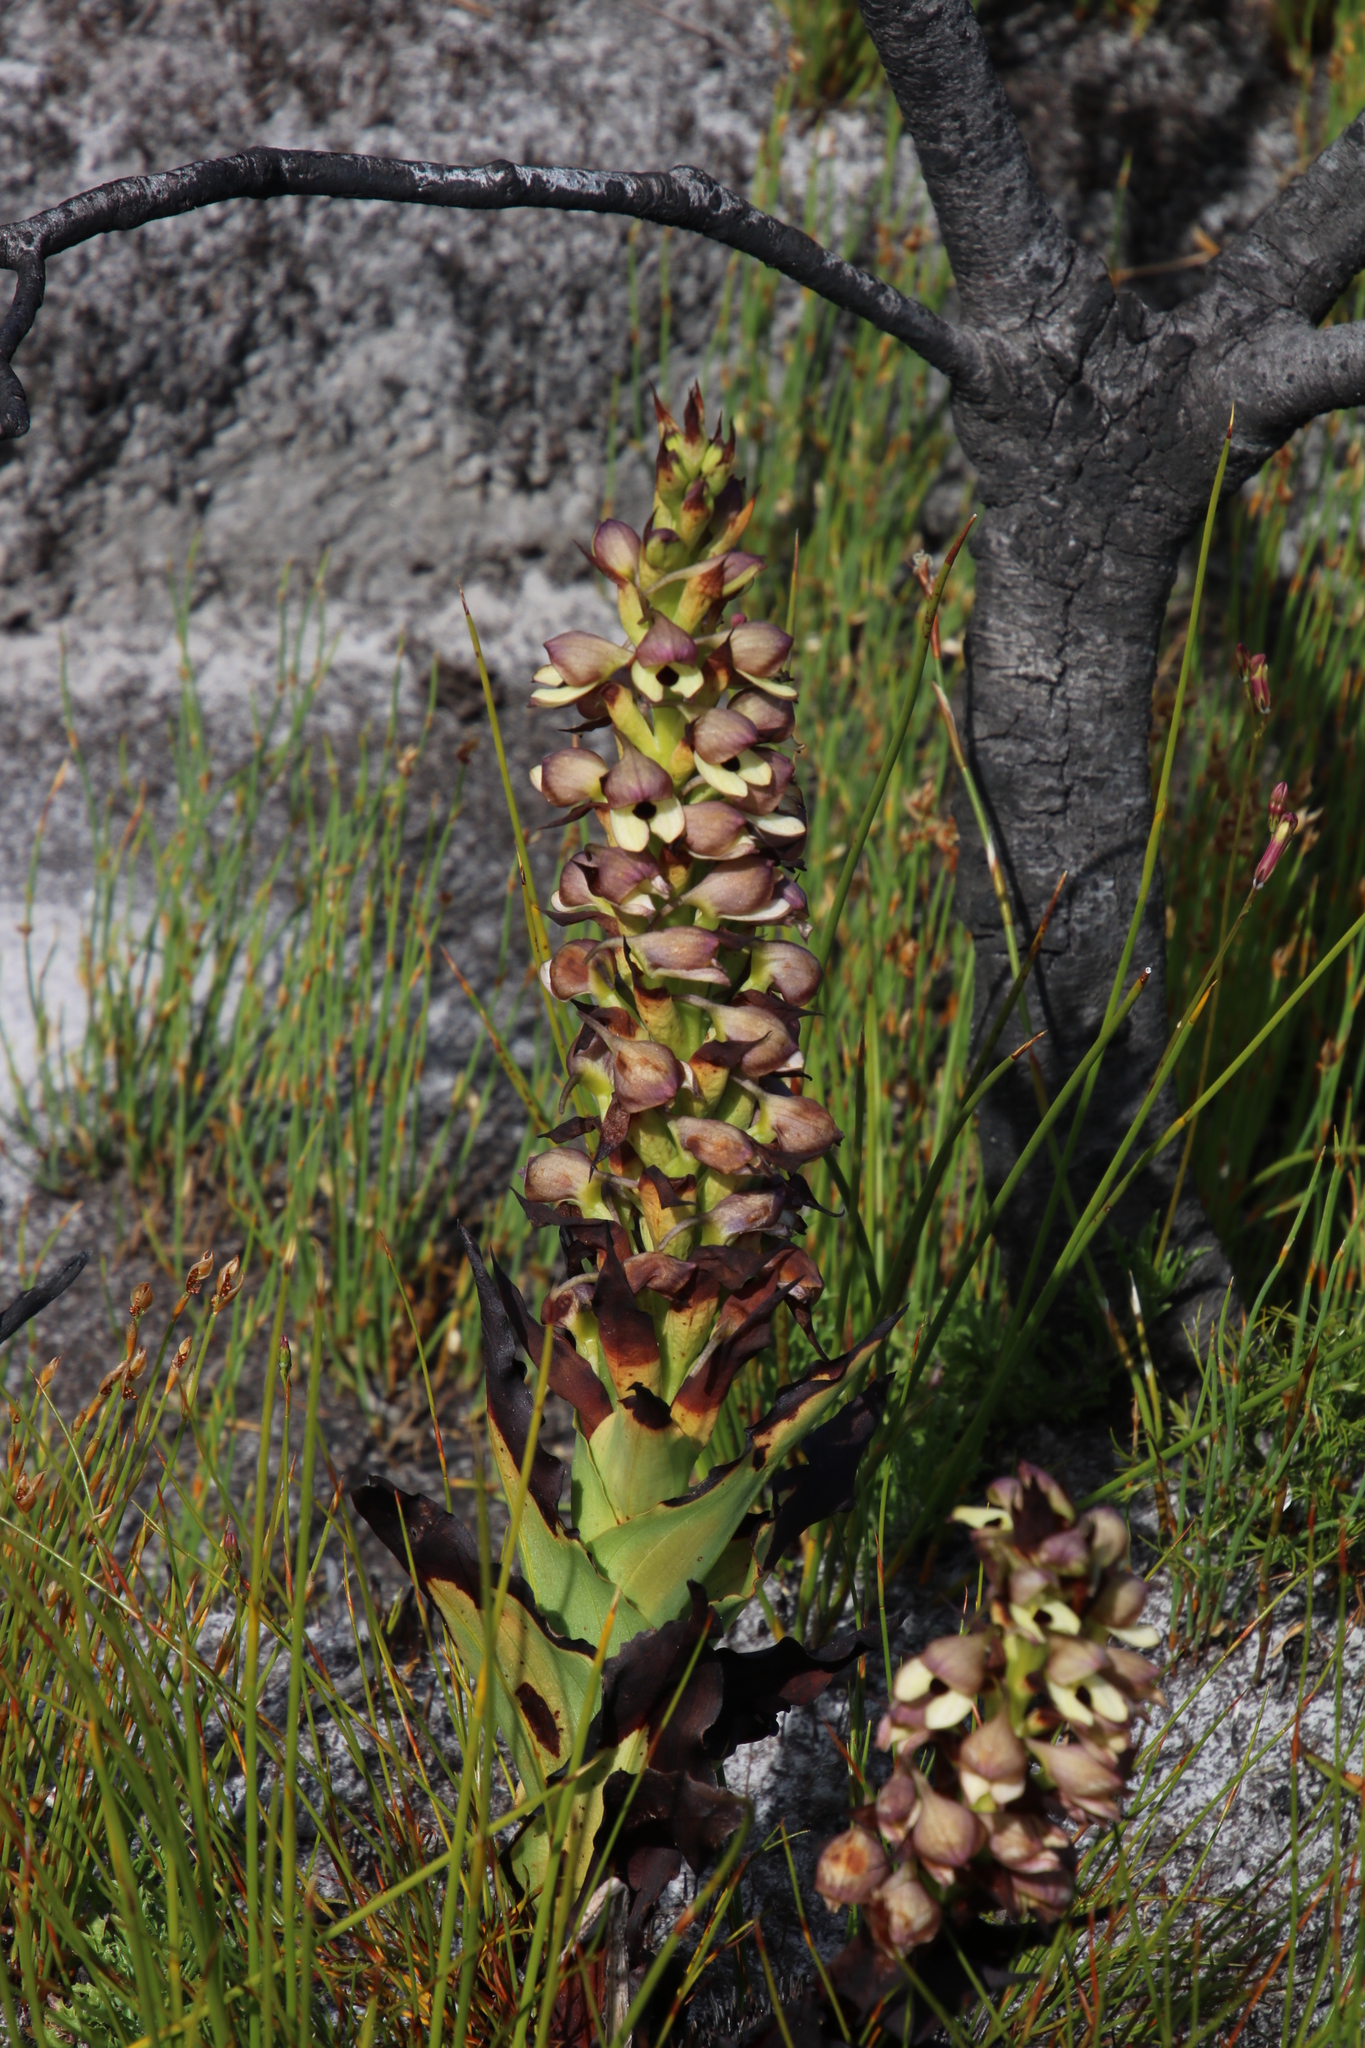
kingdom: Plantae
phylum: Tracheophyta
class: Liliopsida
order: Asparagales
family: Orchidaceae
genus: Disa
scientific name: Disa cornuta
